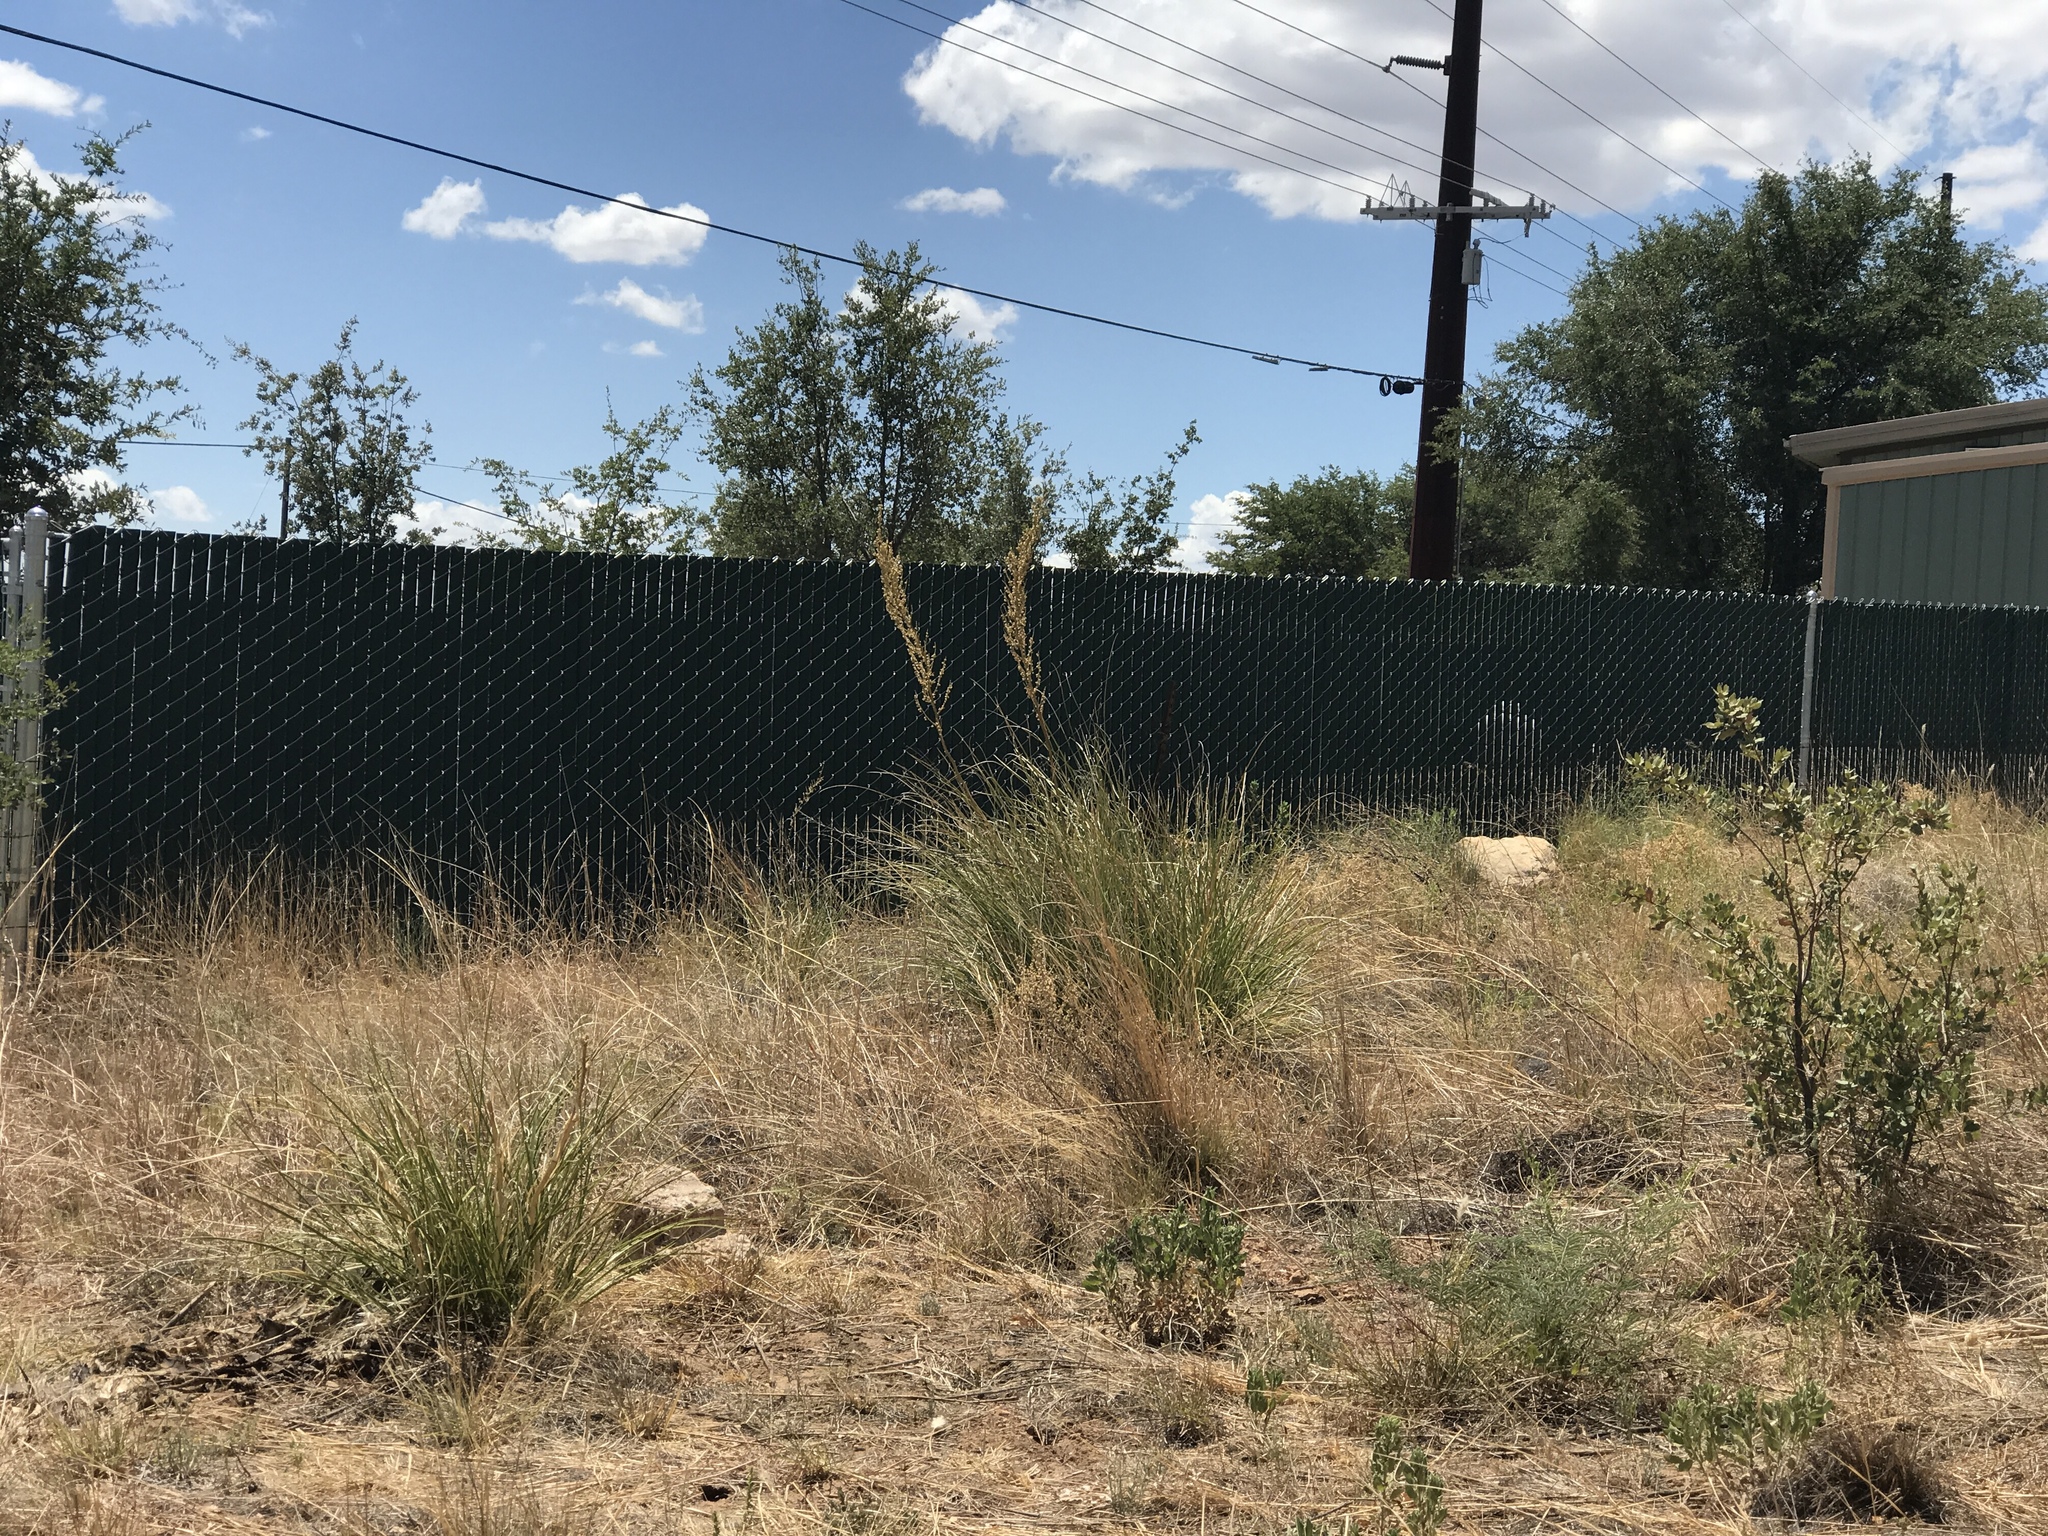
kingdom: Plantae
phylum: Tracheophyta
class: Liliopsida
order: Asparagales
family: Asparagaceae
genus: Nolina
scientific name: Nolina microcarpa
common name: Bear-grass
